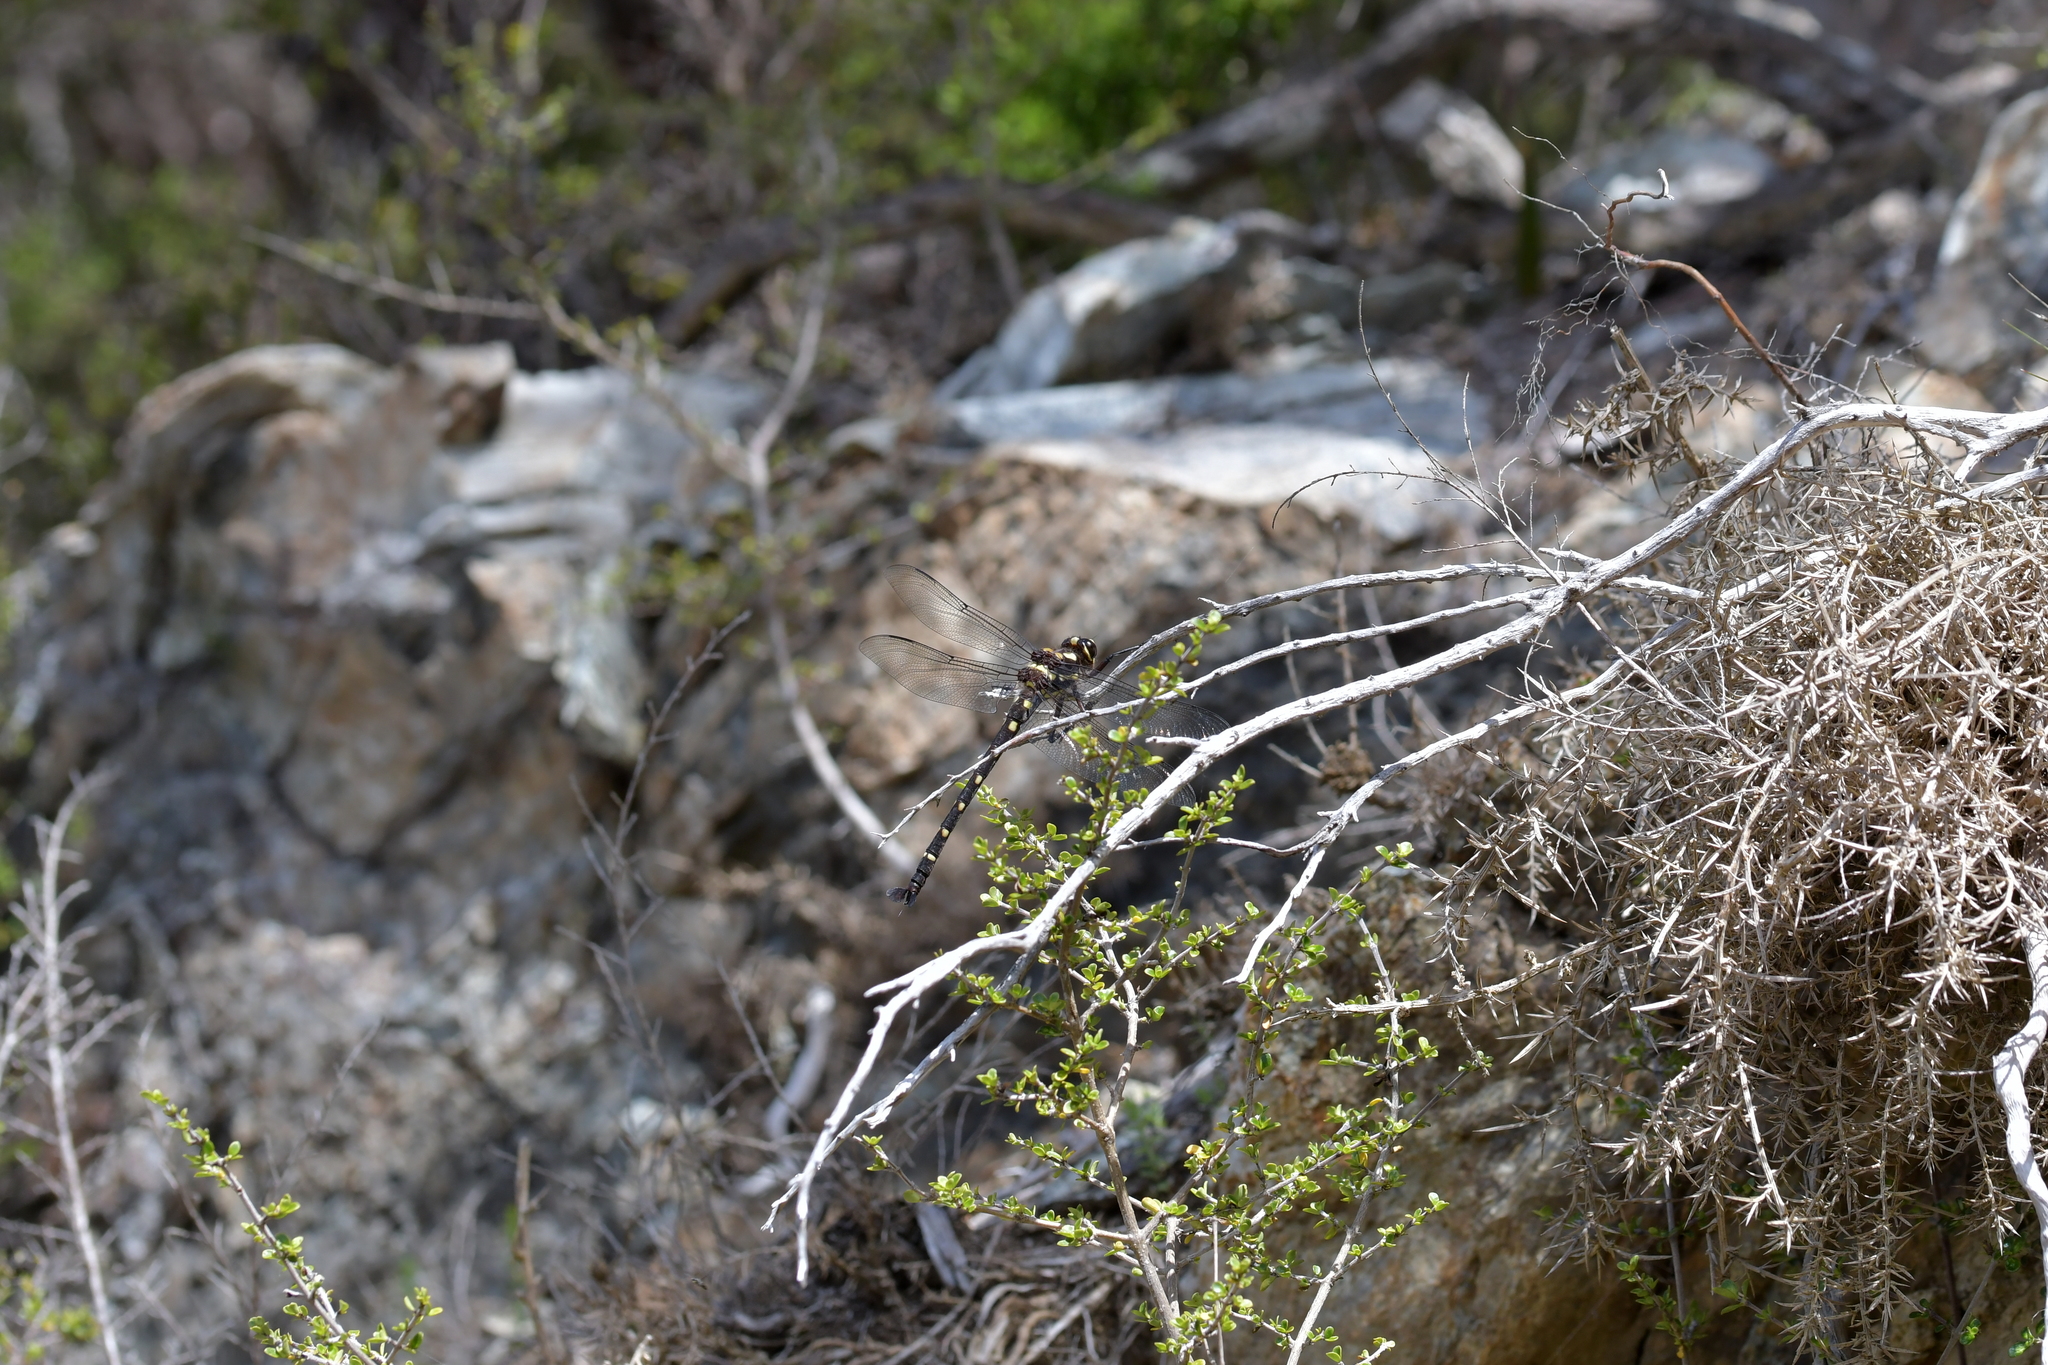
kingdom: Animalia
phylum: Arthropoda
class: Insecta
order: Odonata
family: Petaluridae
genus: Uropetala
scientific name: Uropetala carovei
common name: Bush giant dragonfly
